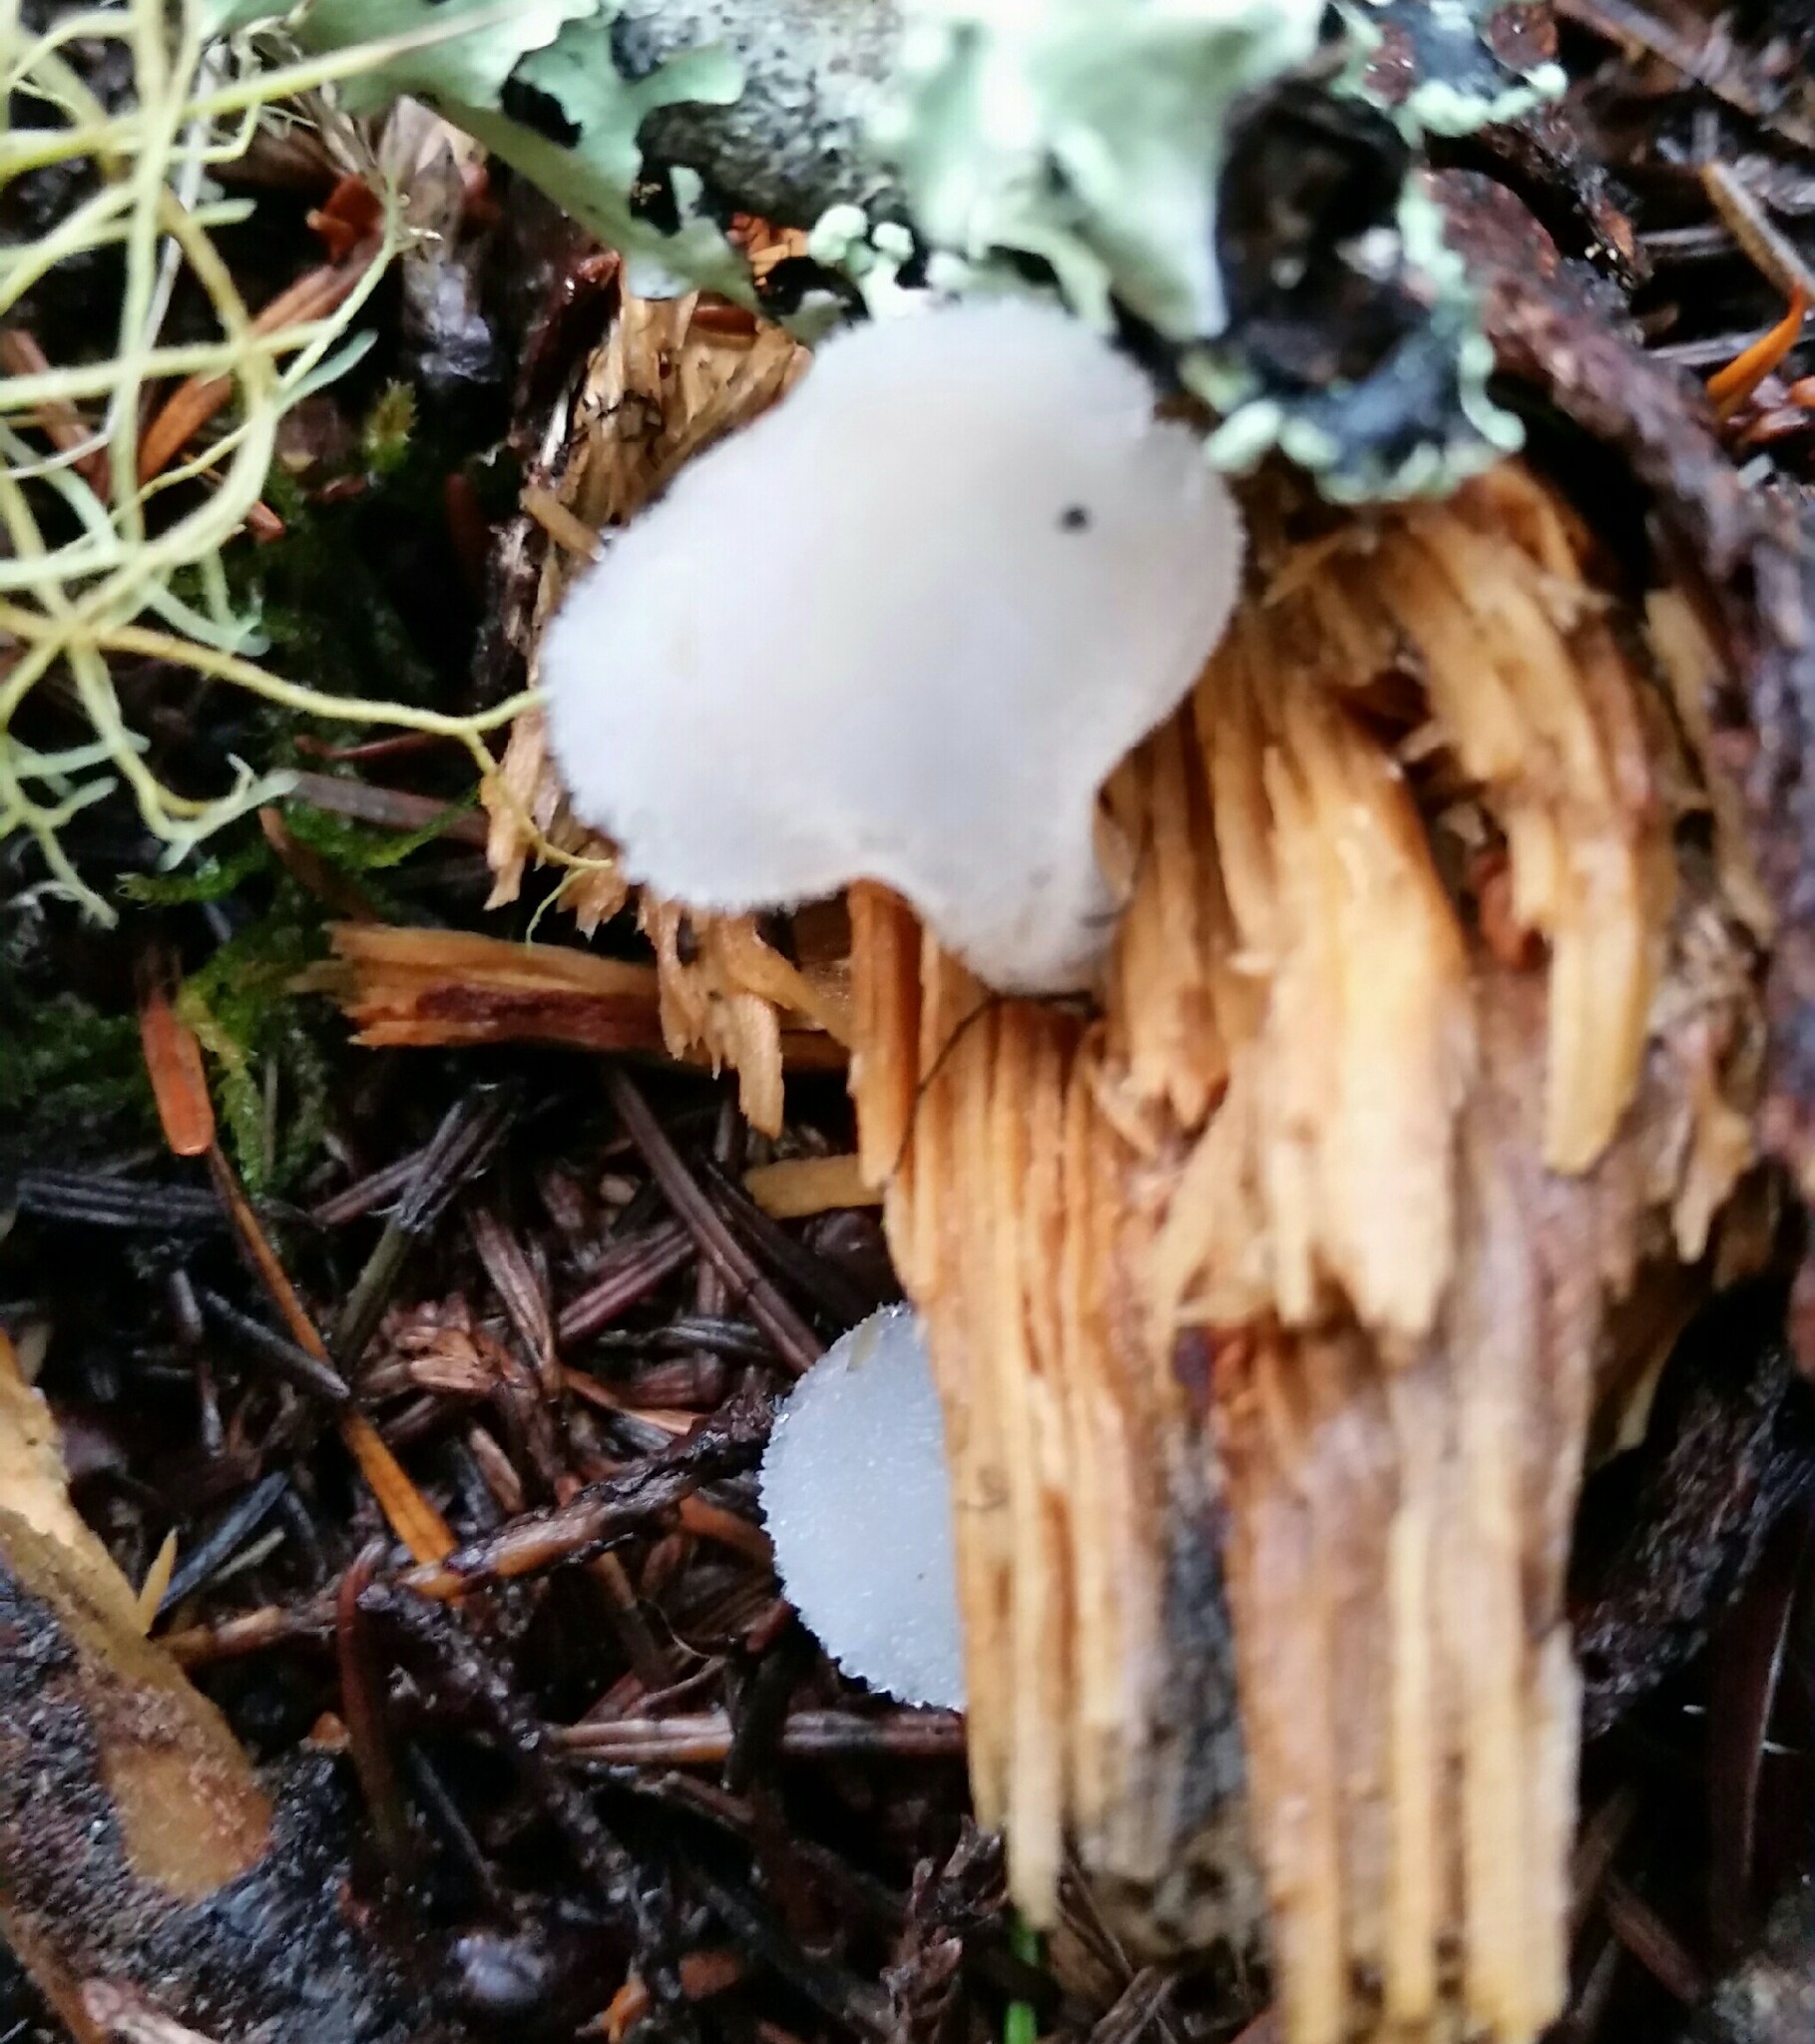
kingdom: Fungi
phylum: Basidiomycota
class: Agaricomycetes
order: Auriculariales
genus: Pseudohydnum
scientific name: Pseudohydnum gelatinosum
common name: Jelly tongue
